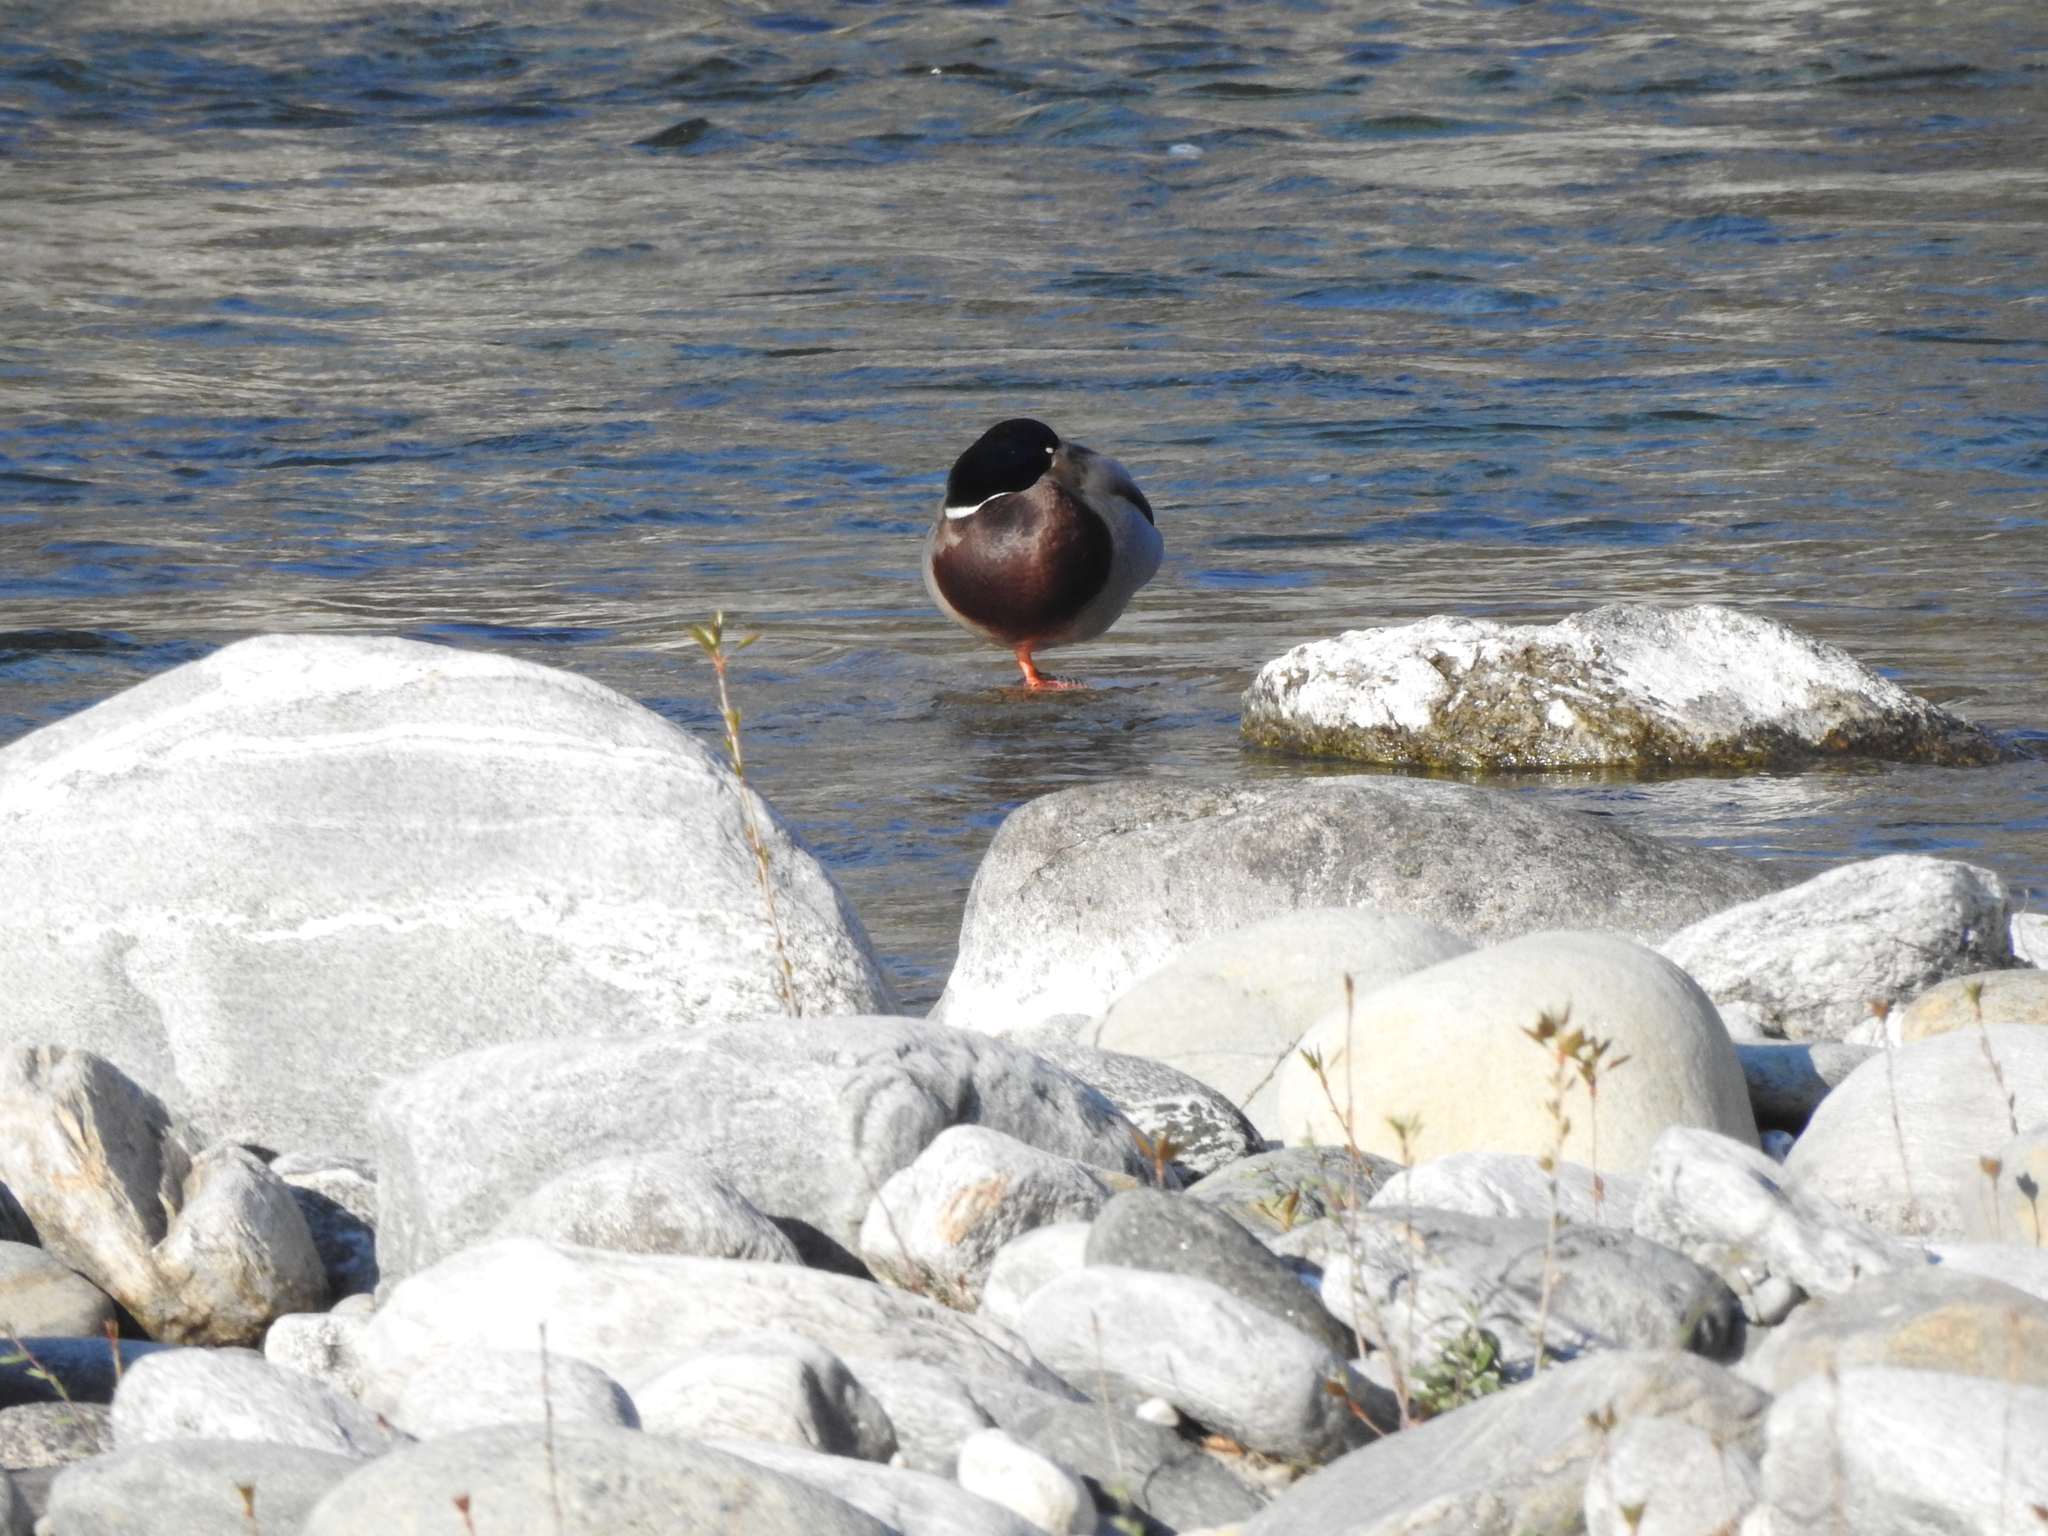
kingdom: Animalia
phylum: Chordata
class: Aves
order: Anseriformes
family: Anatidae
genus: Anas
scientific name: Anas platyrhynchos
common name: Mallard
